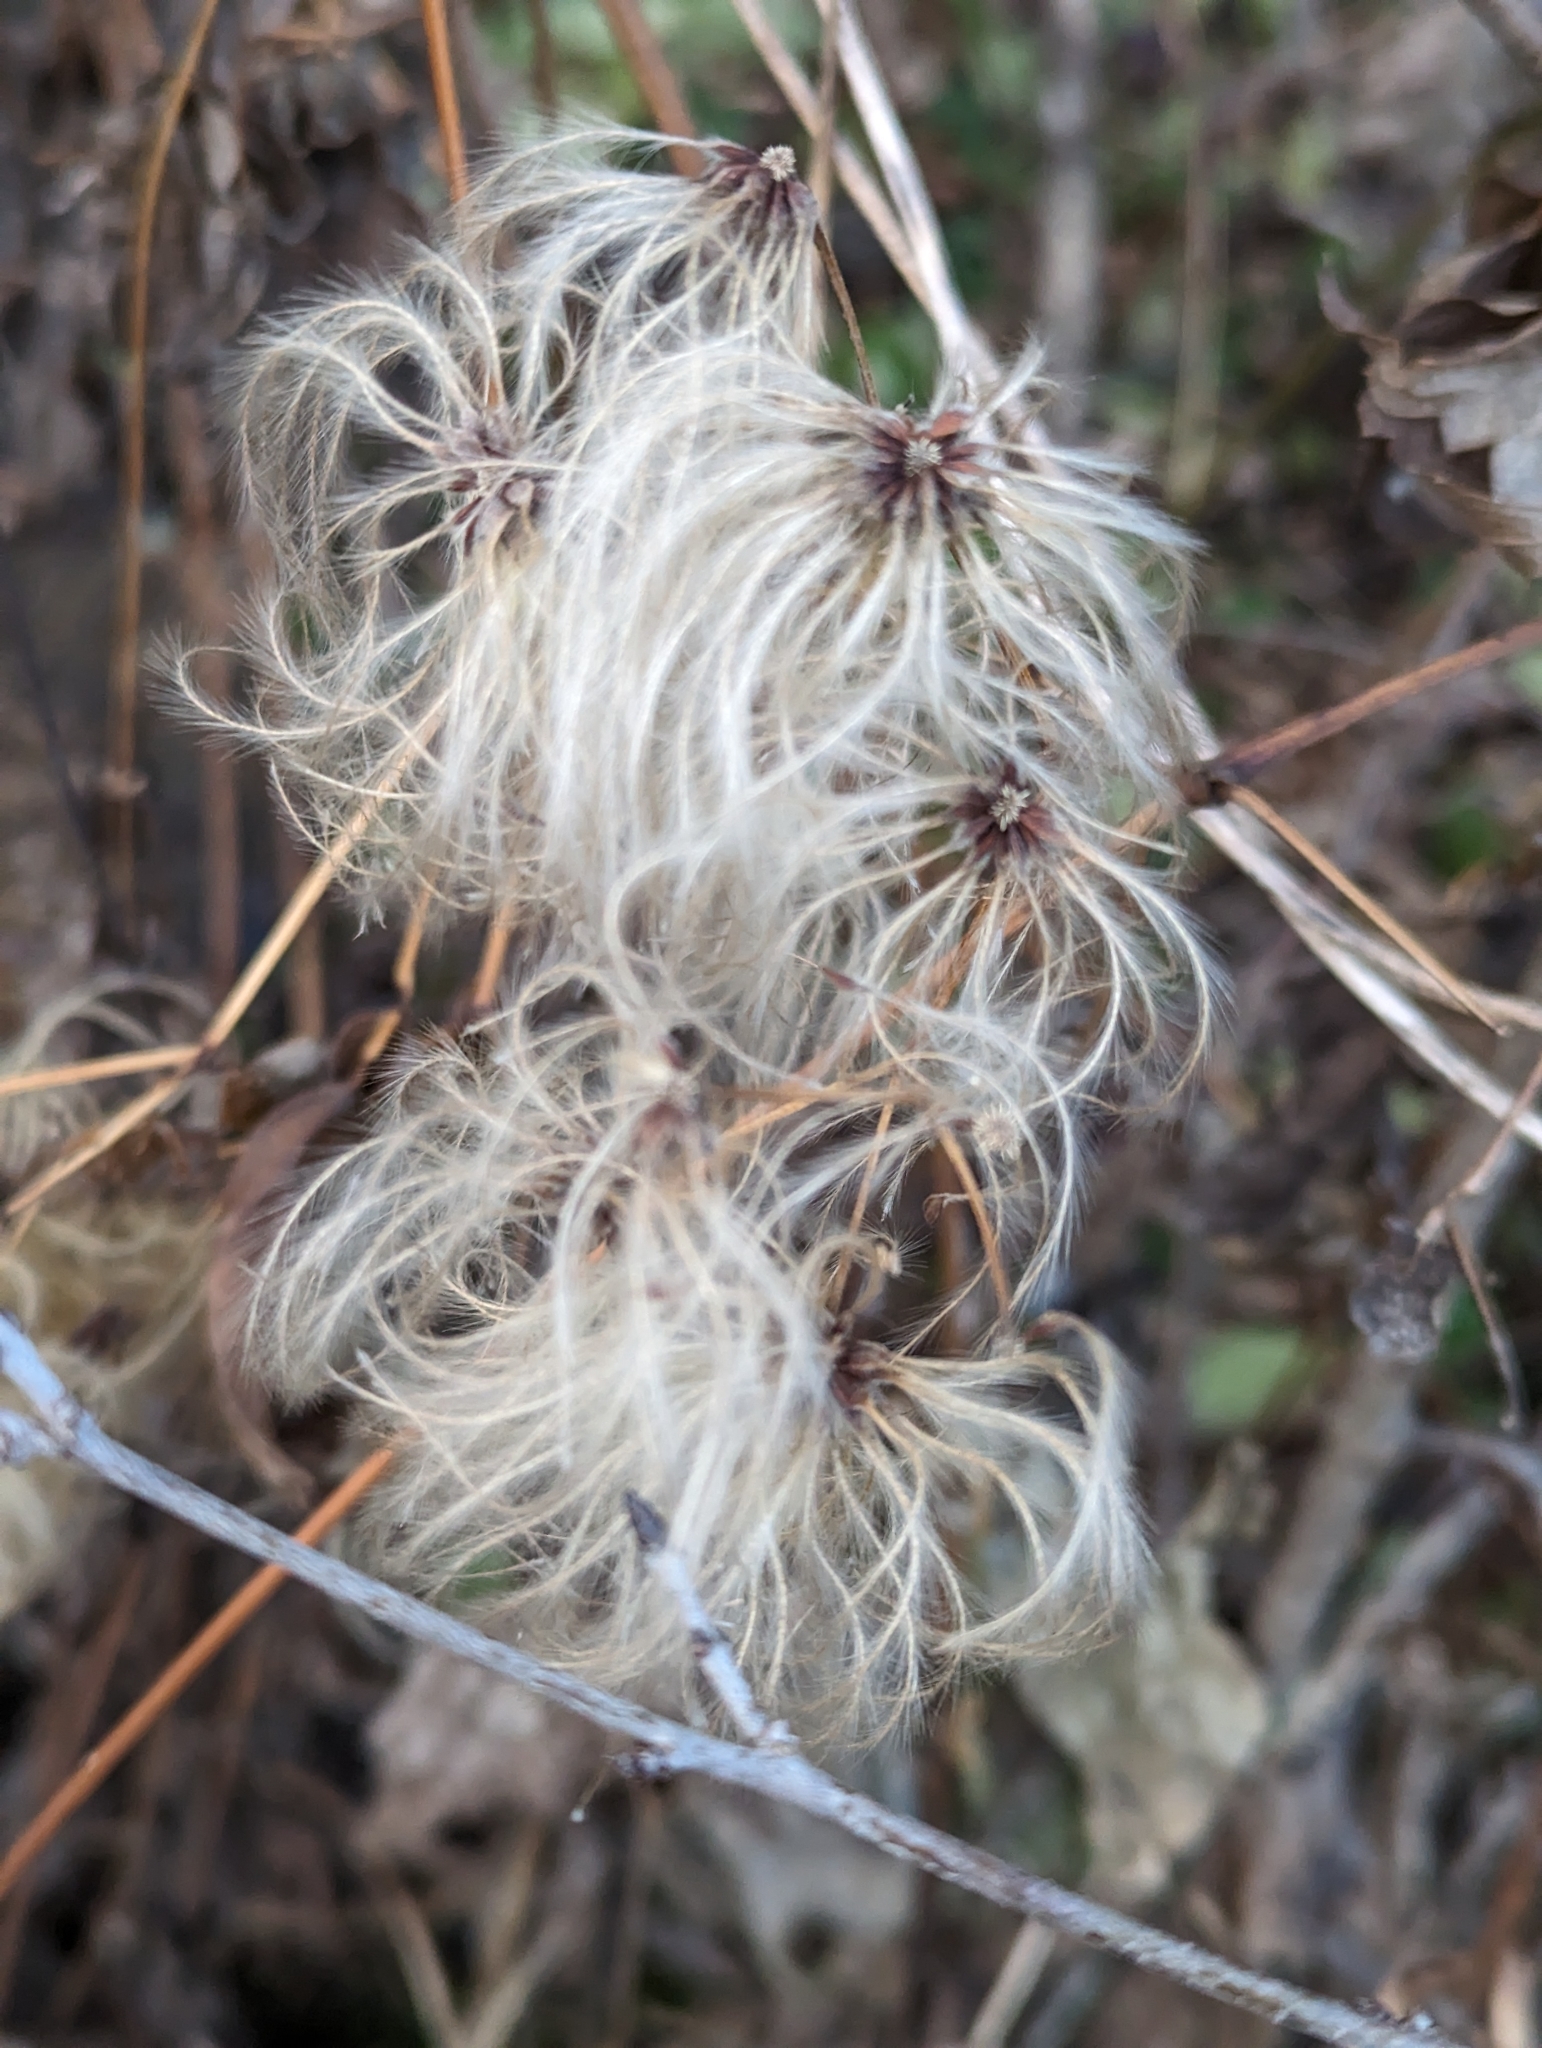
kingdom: Plantae
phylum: Tracheophyta
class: Magnoliopsida
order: Ranunculales
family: Ranunculaceae
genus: Clematis
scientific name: Clematis virginiana
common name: Virgin's-bower
